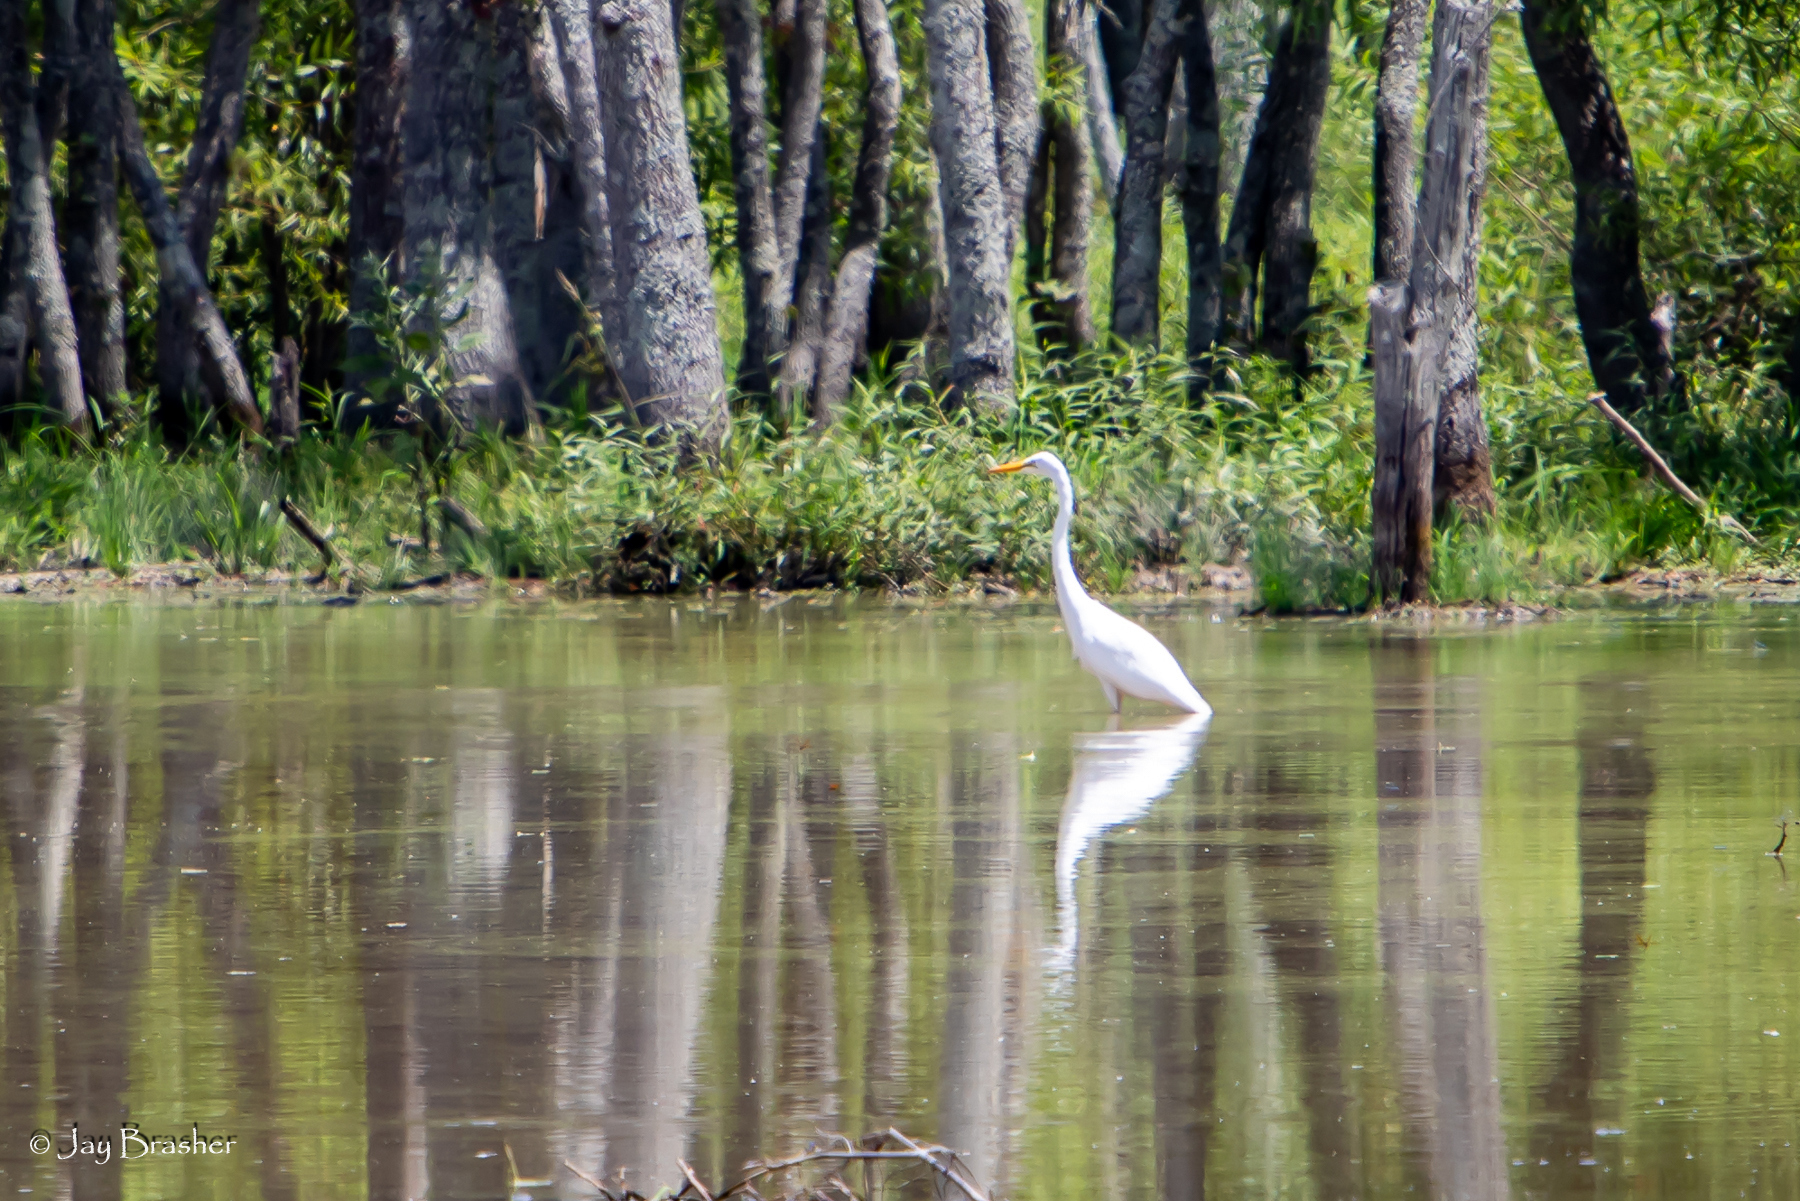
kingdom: Animalia
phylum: Chordata
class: Aves
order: Pelecaniformes
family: Ardeidae
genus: Ardea
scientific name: Ardea alba
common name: Great egret
